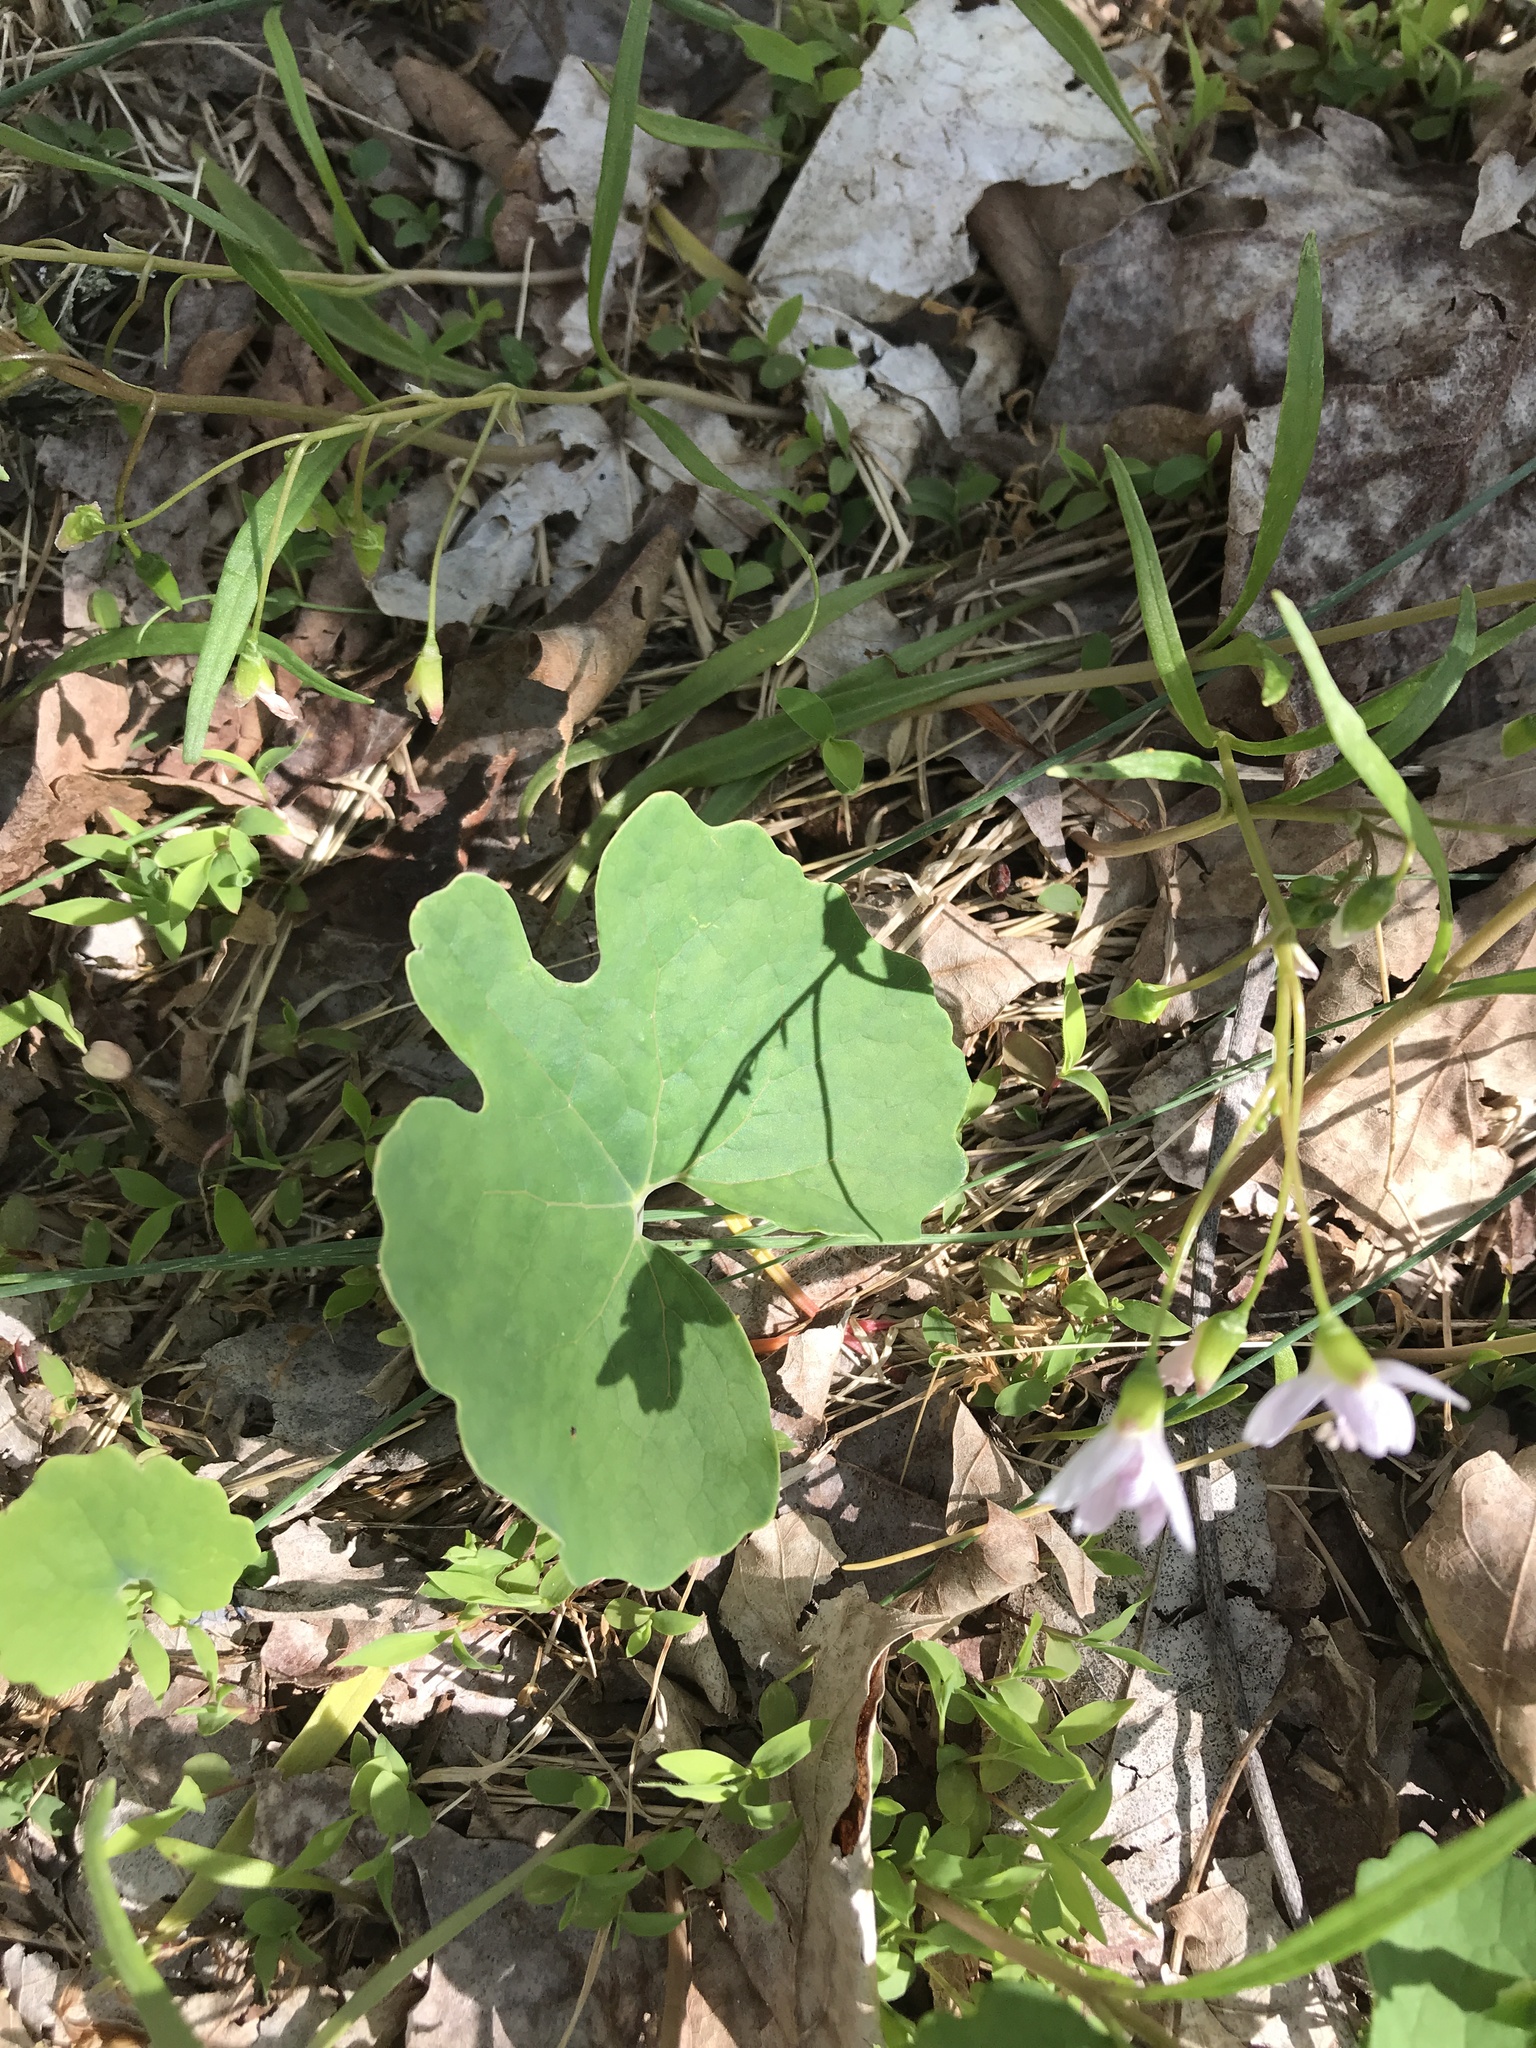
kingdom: Plantae
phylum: Tracheophyta
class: Magnoliopsida
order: Ranunculales
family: Papaveraceae
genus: Sanguinaria
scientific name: Sanguinaria canadensis
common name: Bloodroot
